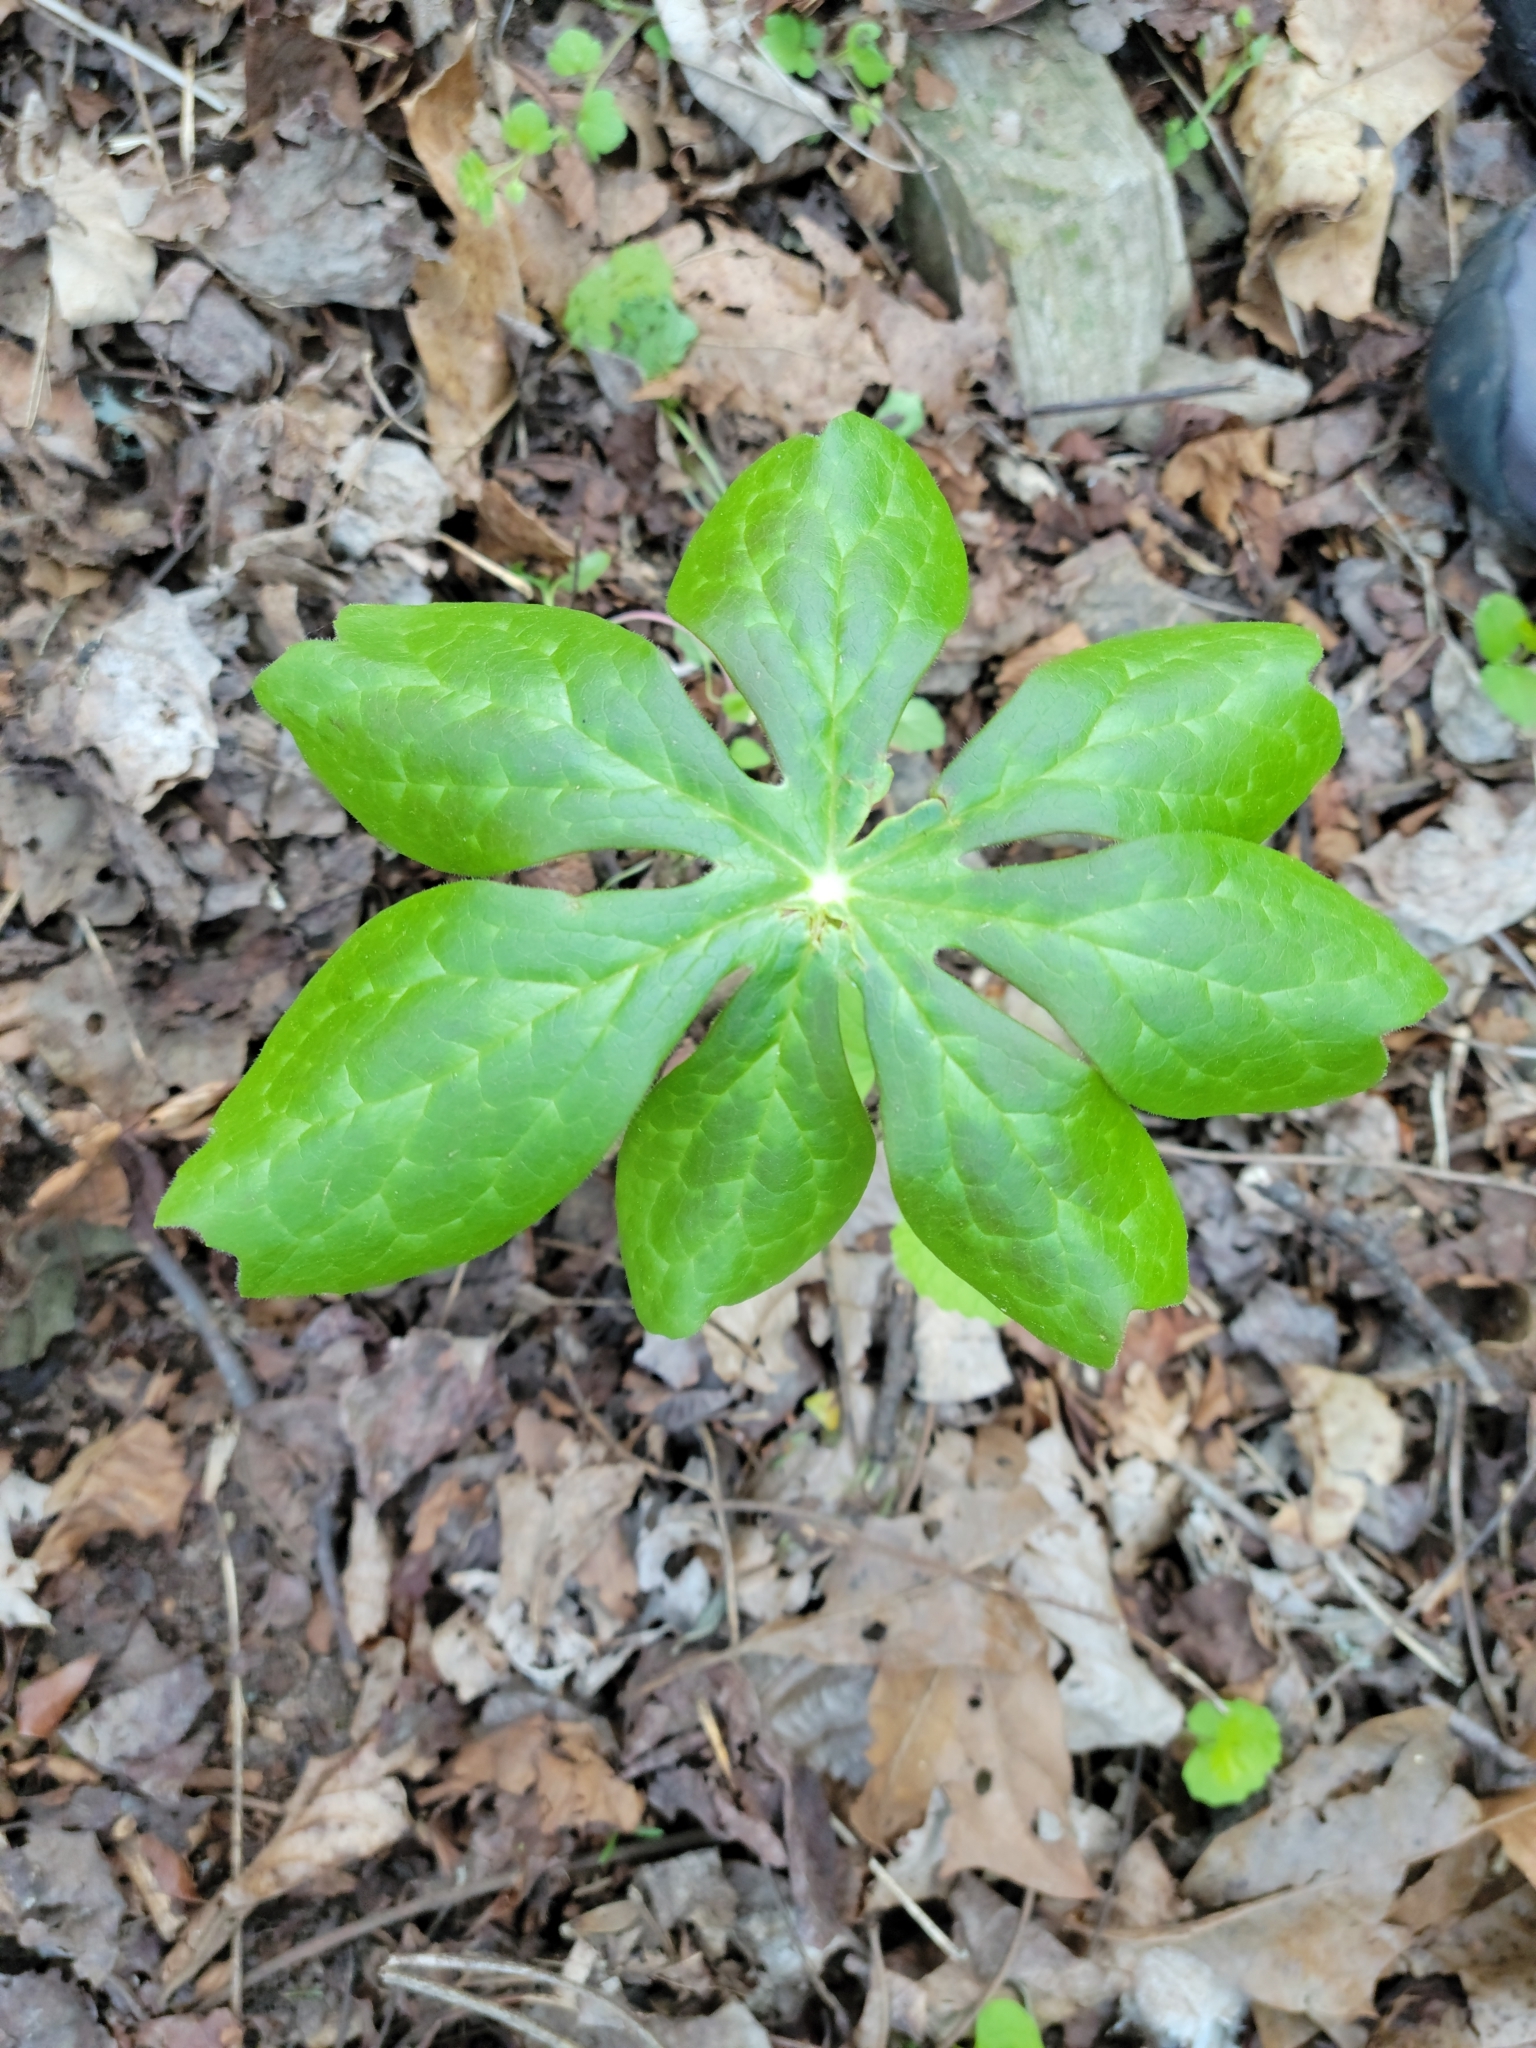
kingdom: Plantae
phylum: Tracheophyta
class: Magnoliopsida
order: Ranunculales
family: Berberidaceae
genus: Podophyllum
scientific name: Podophyllum peltatum
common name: Wild mandrake
